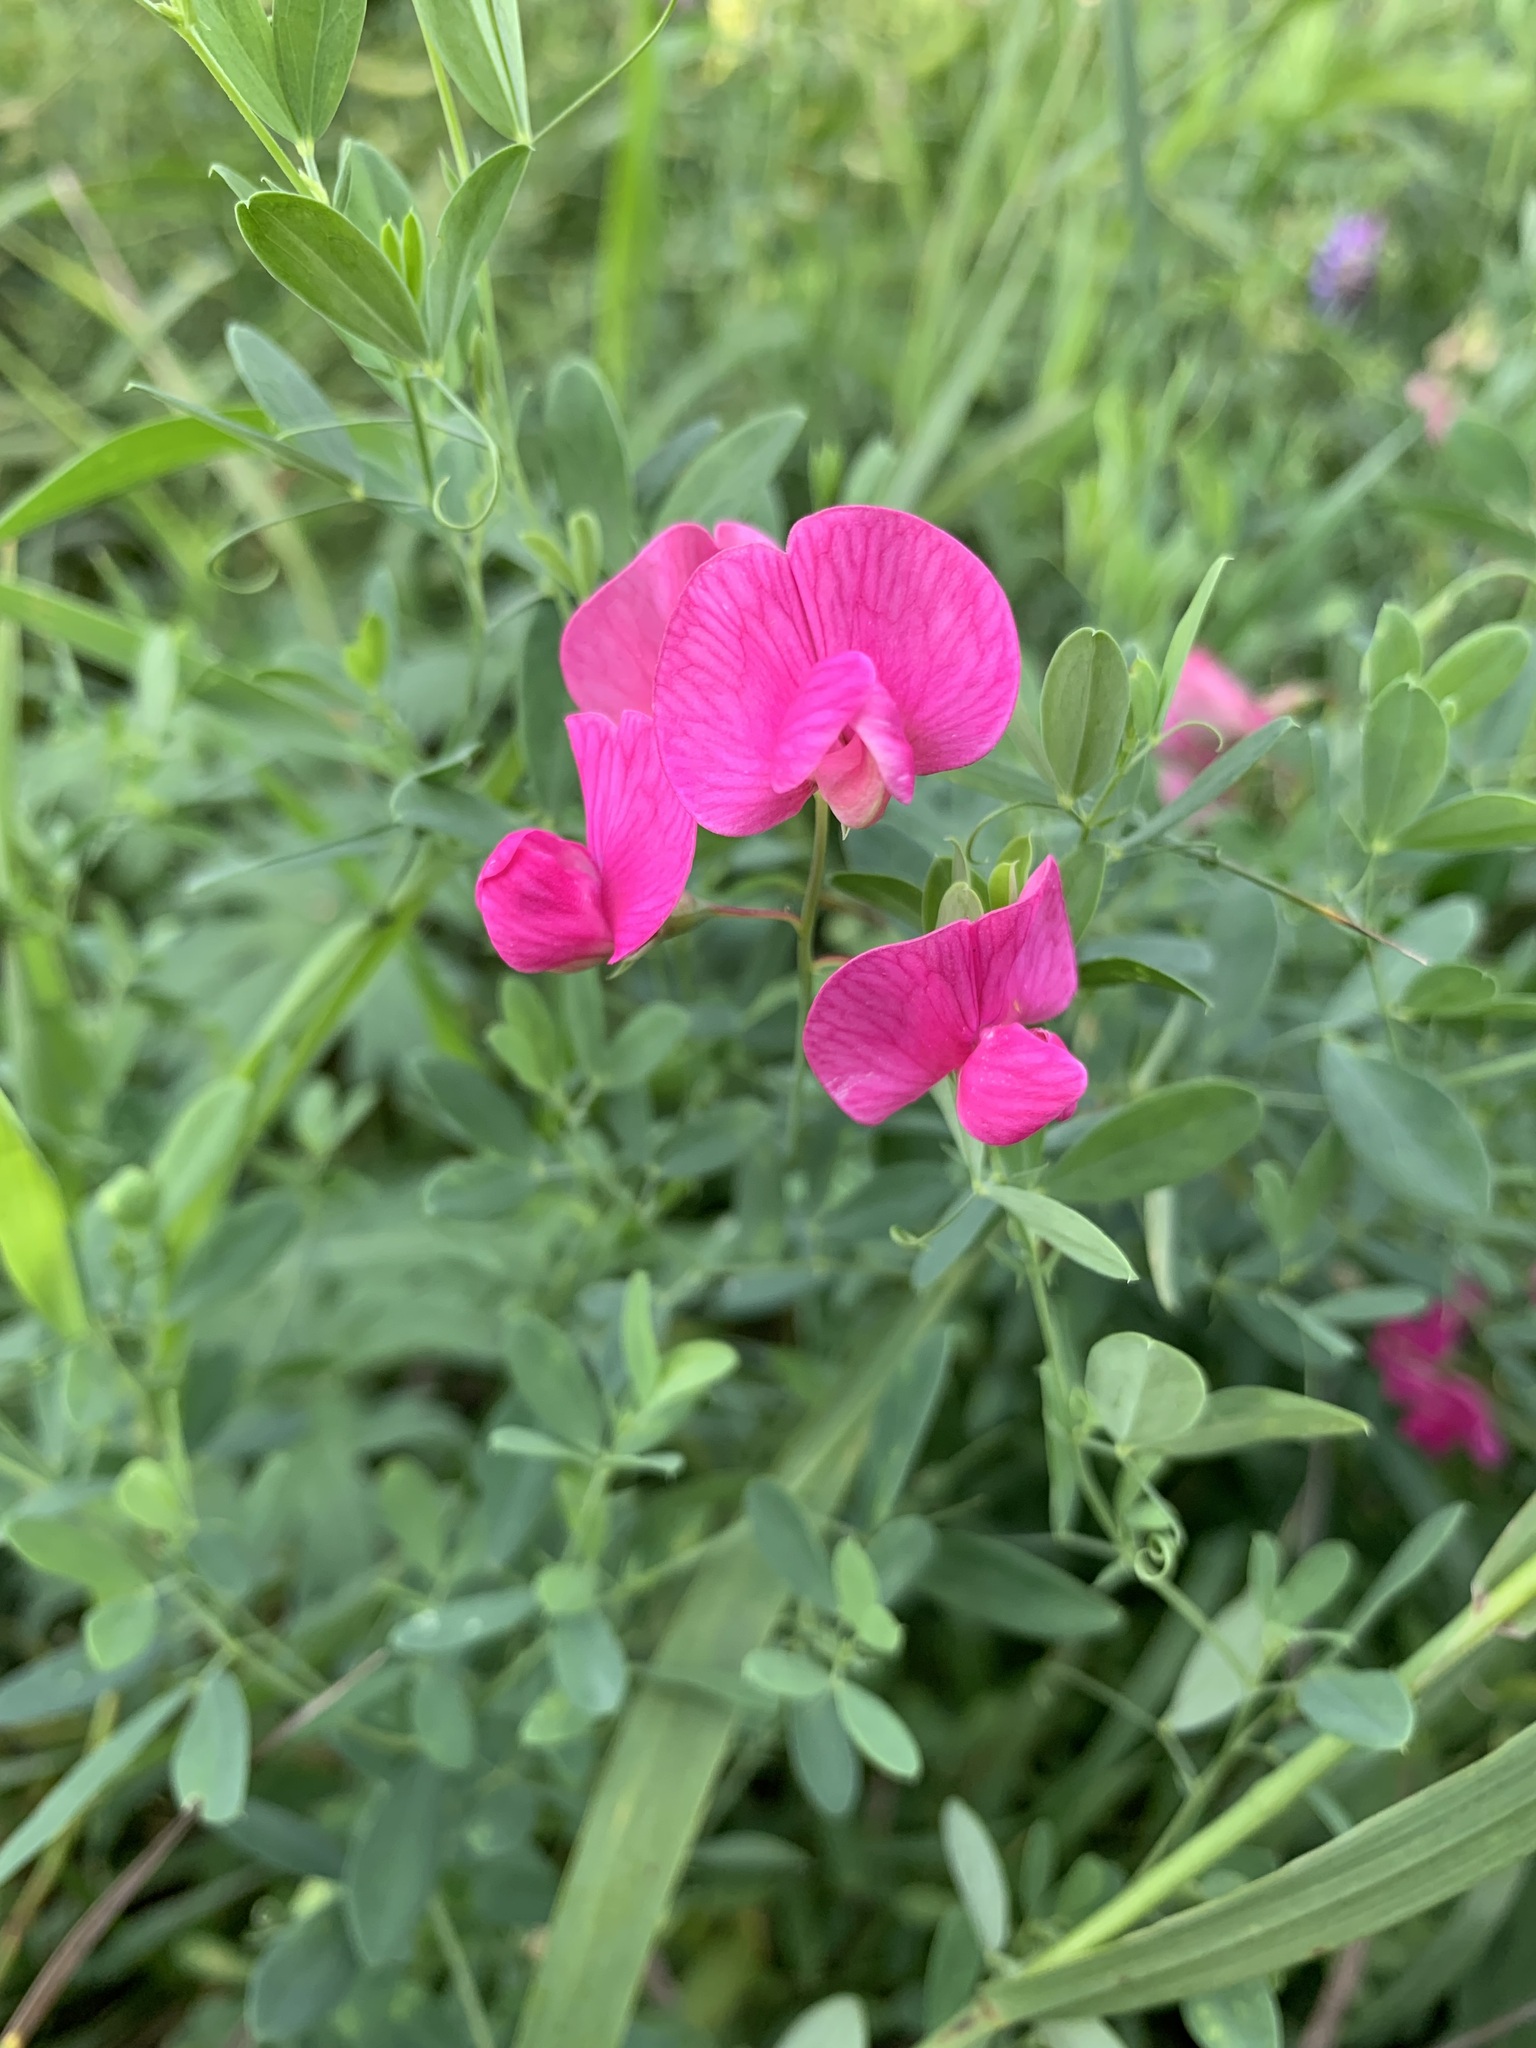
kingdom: Plantae
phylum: Tracheophyta
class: Magnoliopsida
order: Fabales
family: Fabaceae
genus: Lathyrus
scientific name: Lathyrus tuberosus
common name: Tuberous pea
